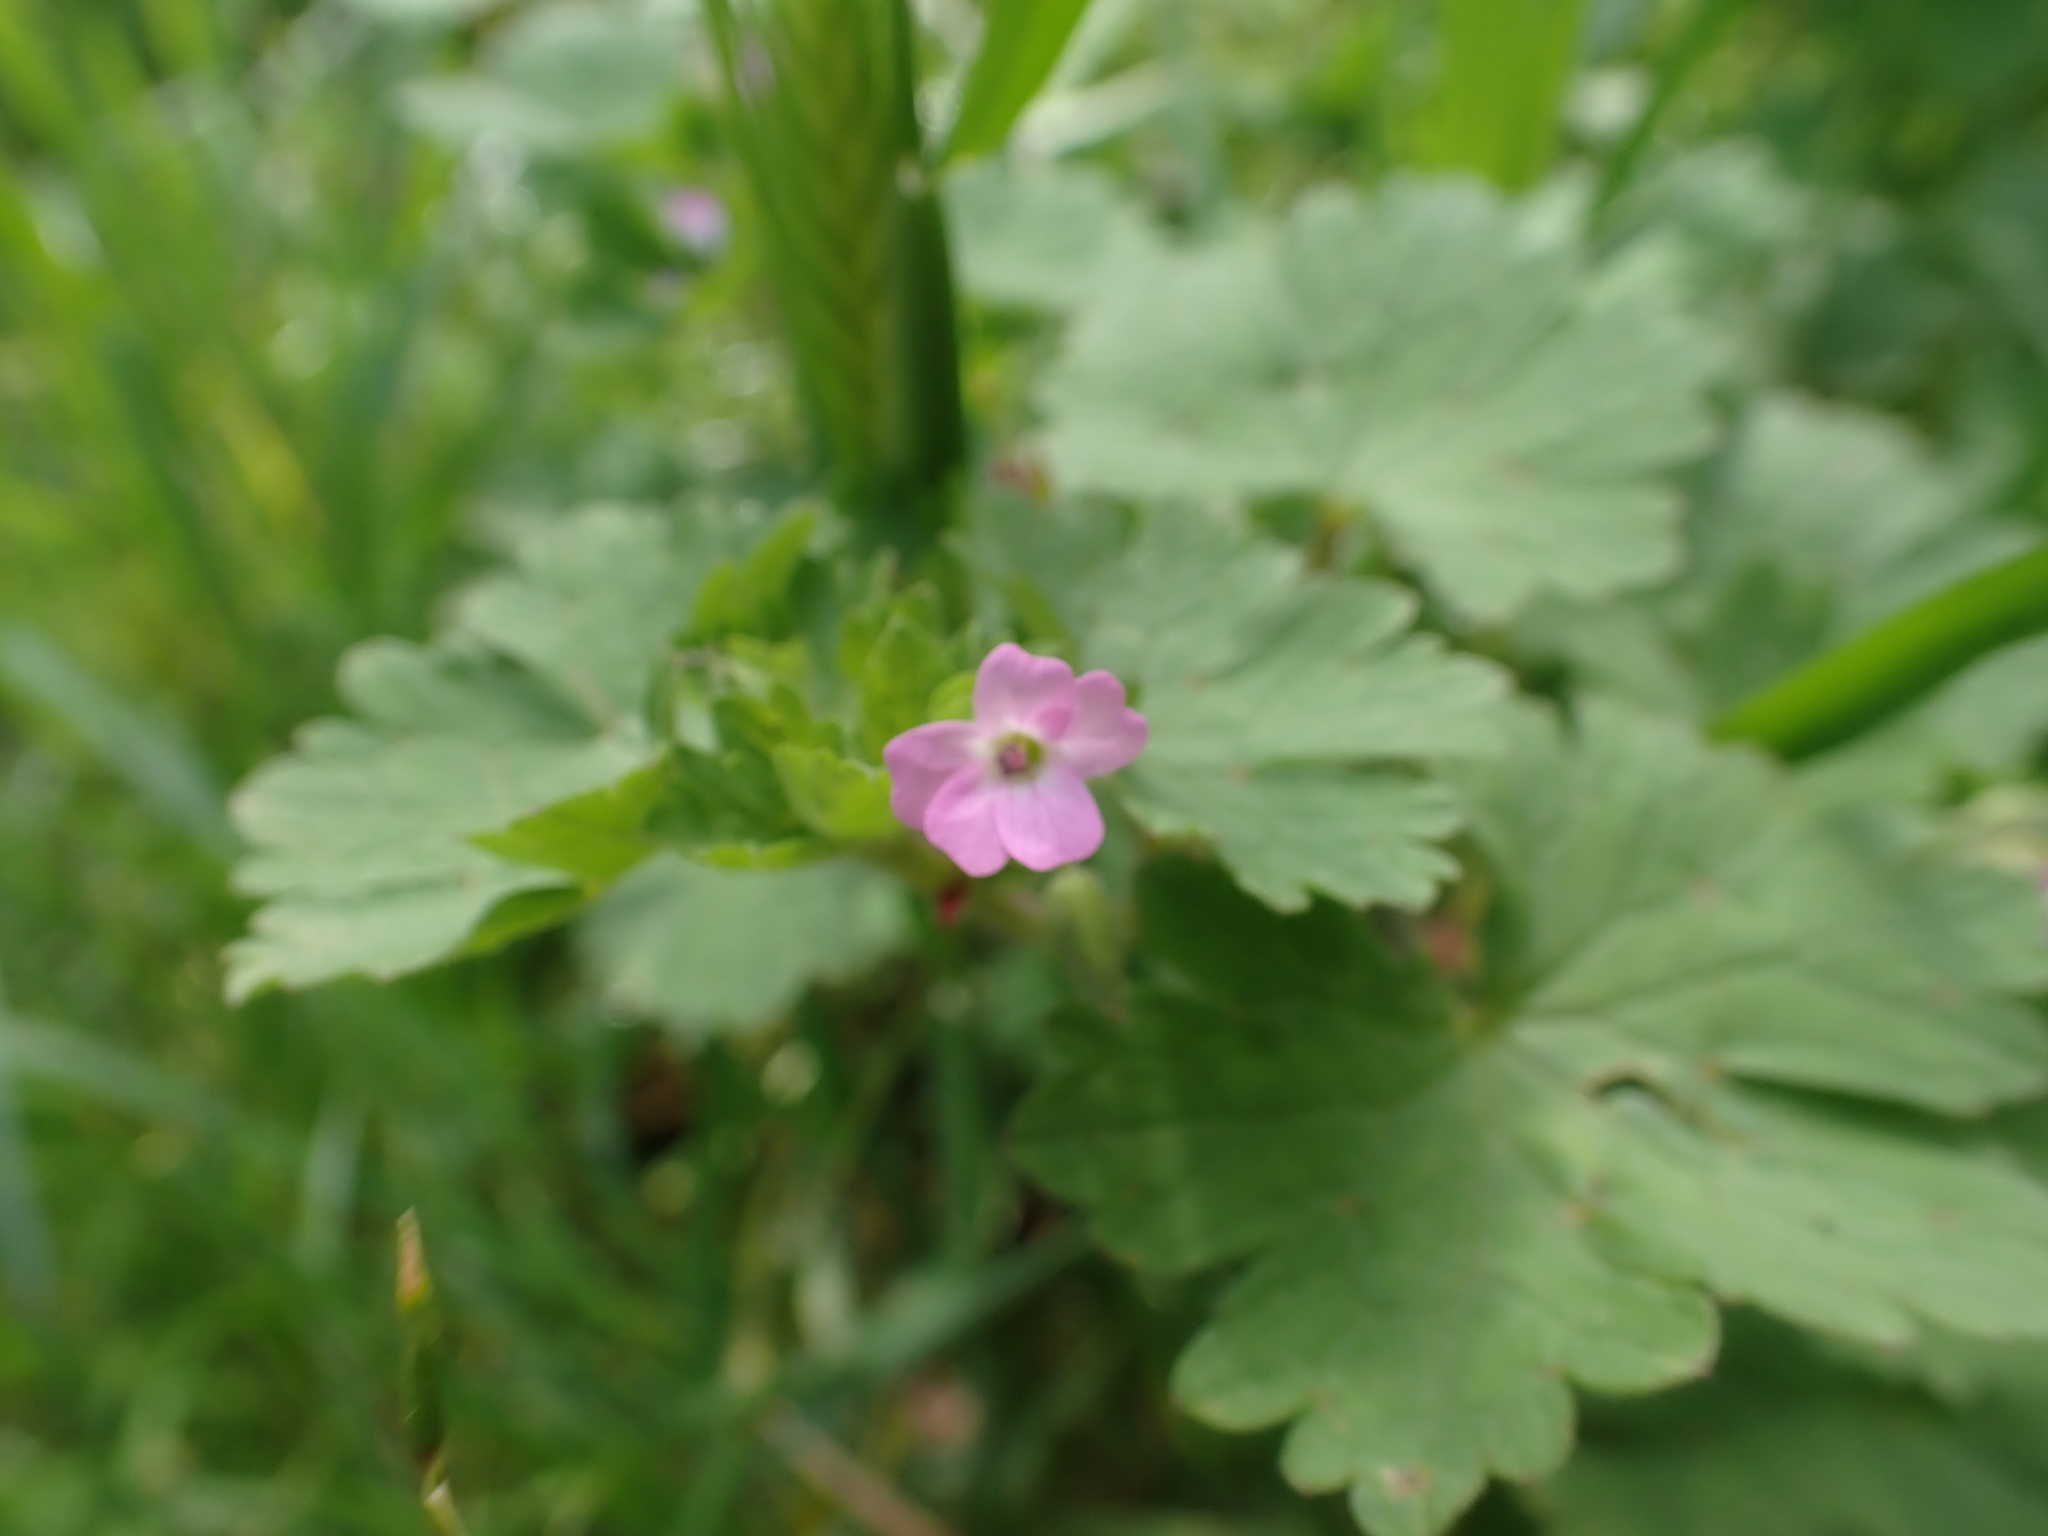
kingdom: Plantae
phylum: Tracheophyta
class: Magnoliopsida
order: Geraniales
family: Geraniaceae
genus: Geranium
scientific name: Geranium rotundifolium
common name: Round-leaved crane's-bill
